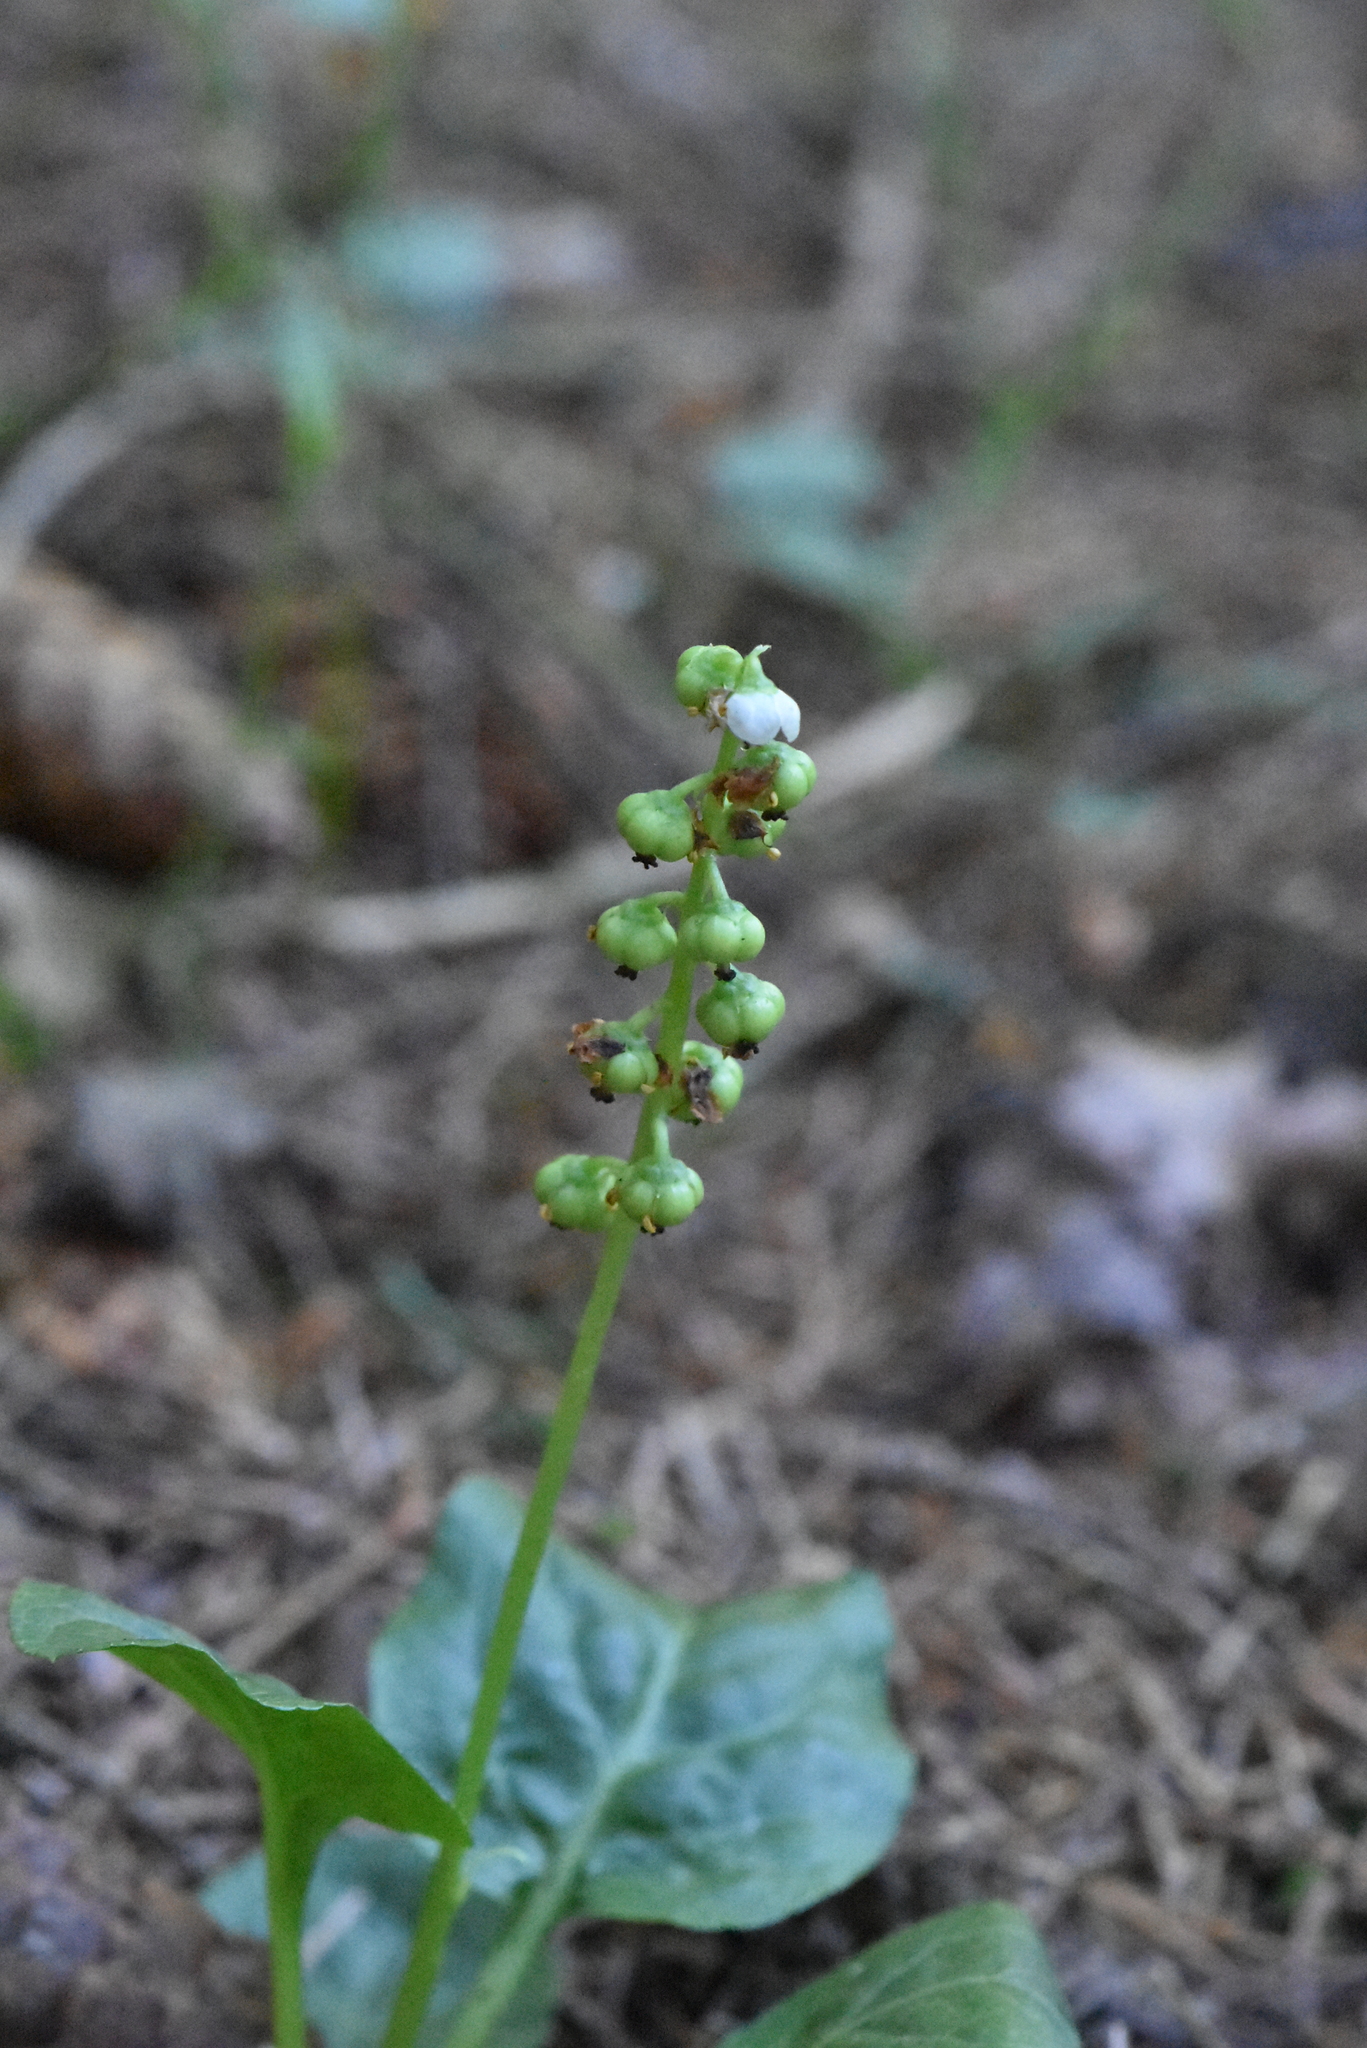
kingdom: Plantae
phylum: Tracheophyta
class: Magnoliopsida
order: Ericales
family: Ericaceae
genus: Pyrola
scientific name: Pyrola minor
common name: Common wintergreen
